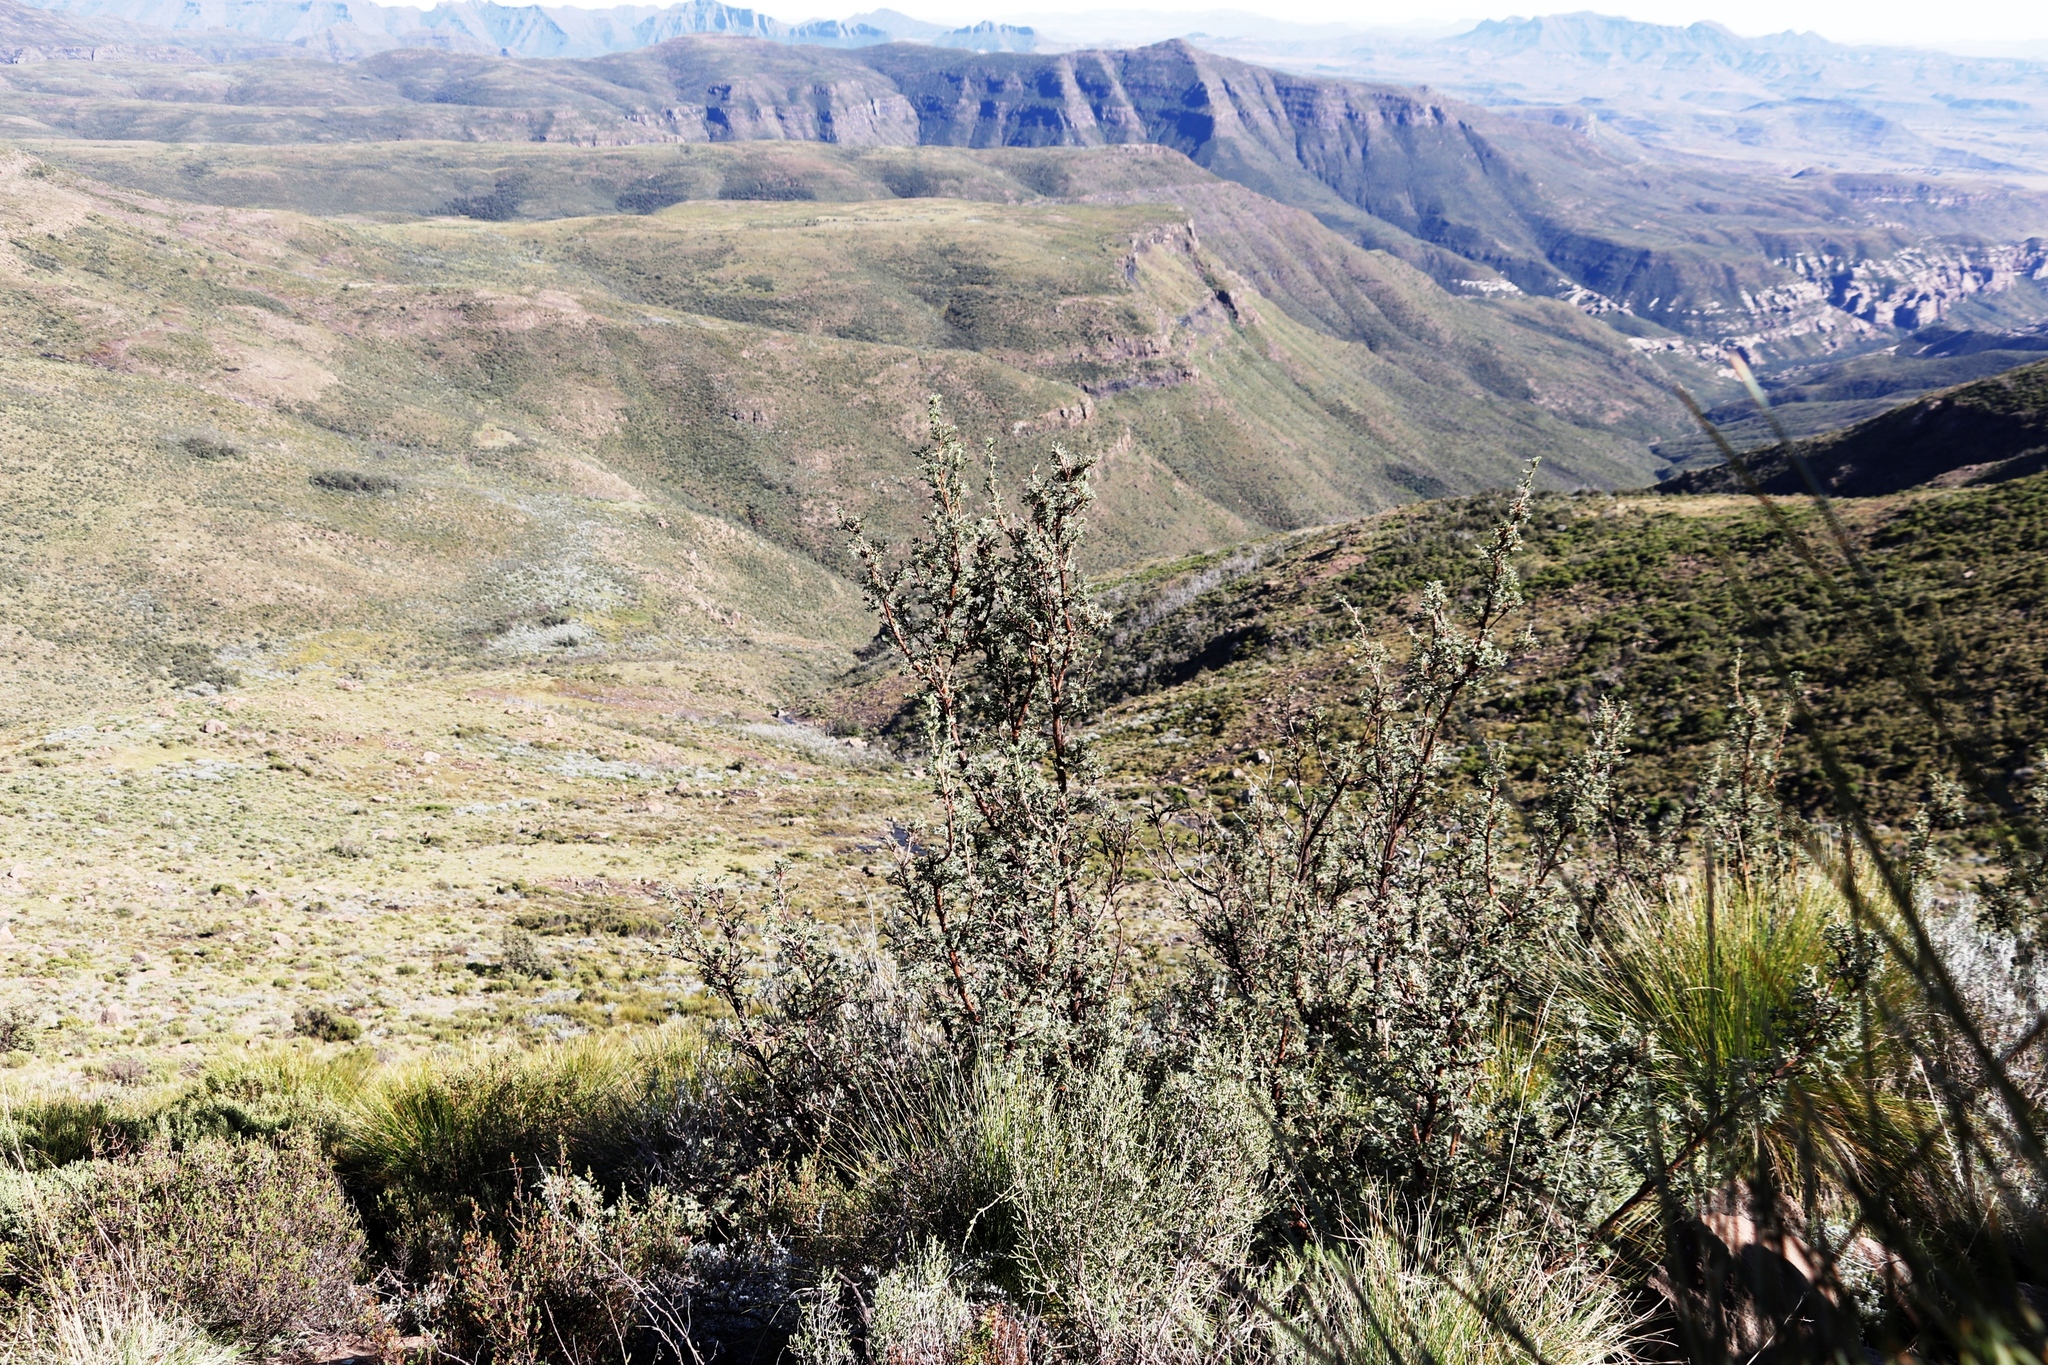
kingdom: Plantae
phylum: Tracheophyta
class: Magnoliopsida
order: Rosales
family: Rosaceae
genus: Leucosidea
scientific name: Leucosidea sericea
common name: Oldwood
